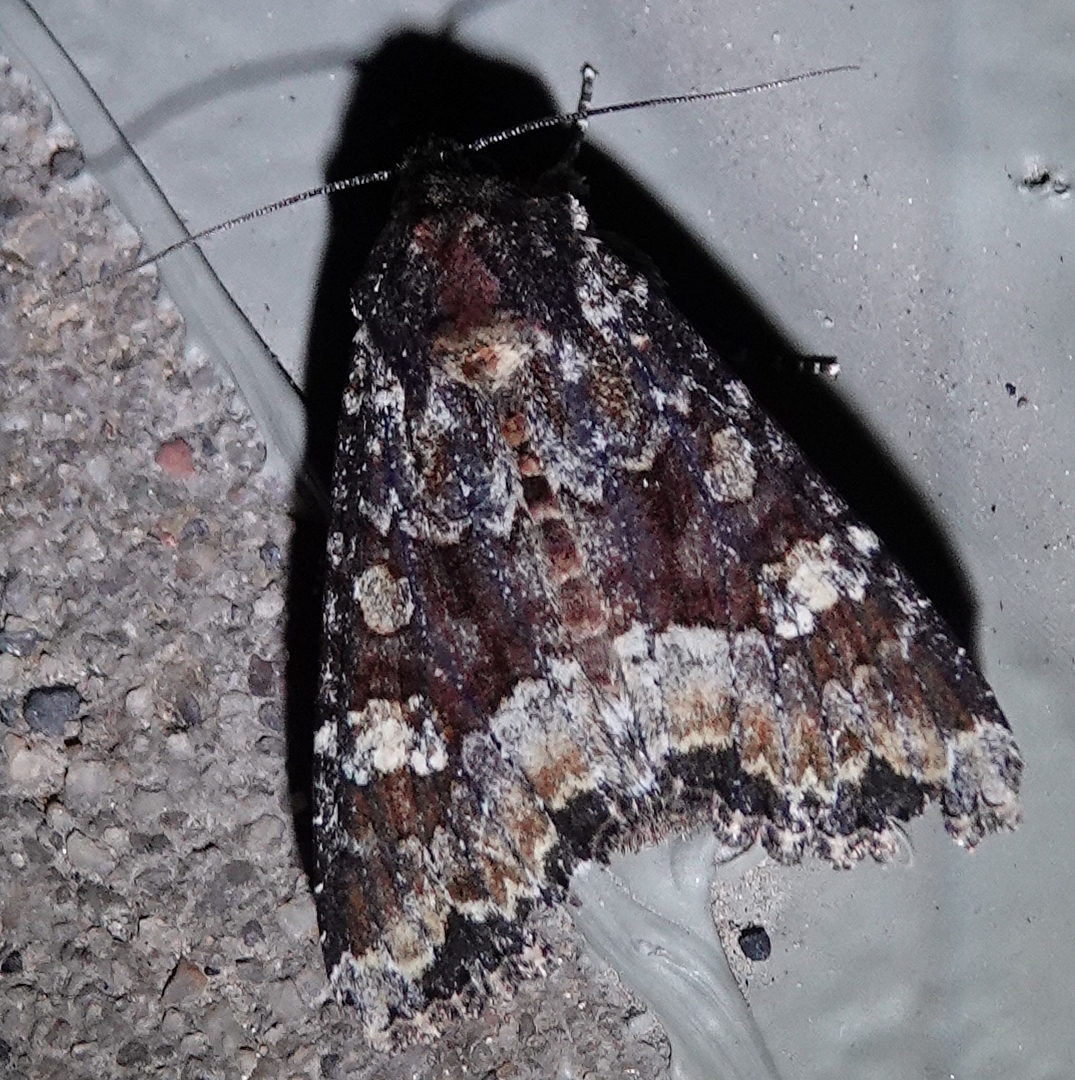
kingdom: Animalia
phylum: Arthropoda
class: Insecta
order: Lepidoptera
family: Noctuidae
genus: Apamea
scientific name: Apamea amputatrix
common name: Yellow-headed cutworm moth
